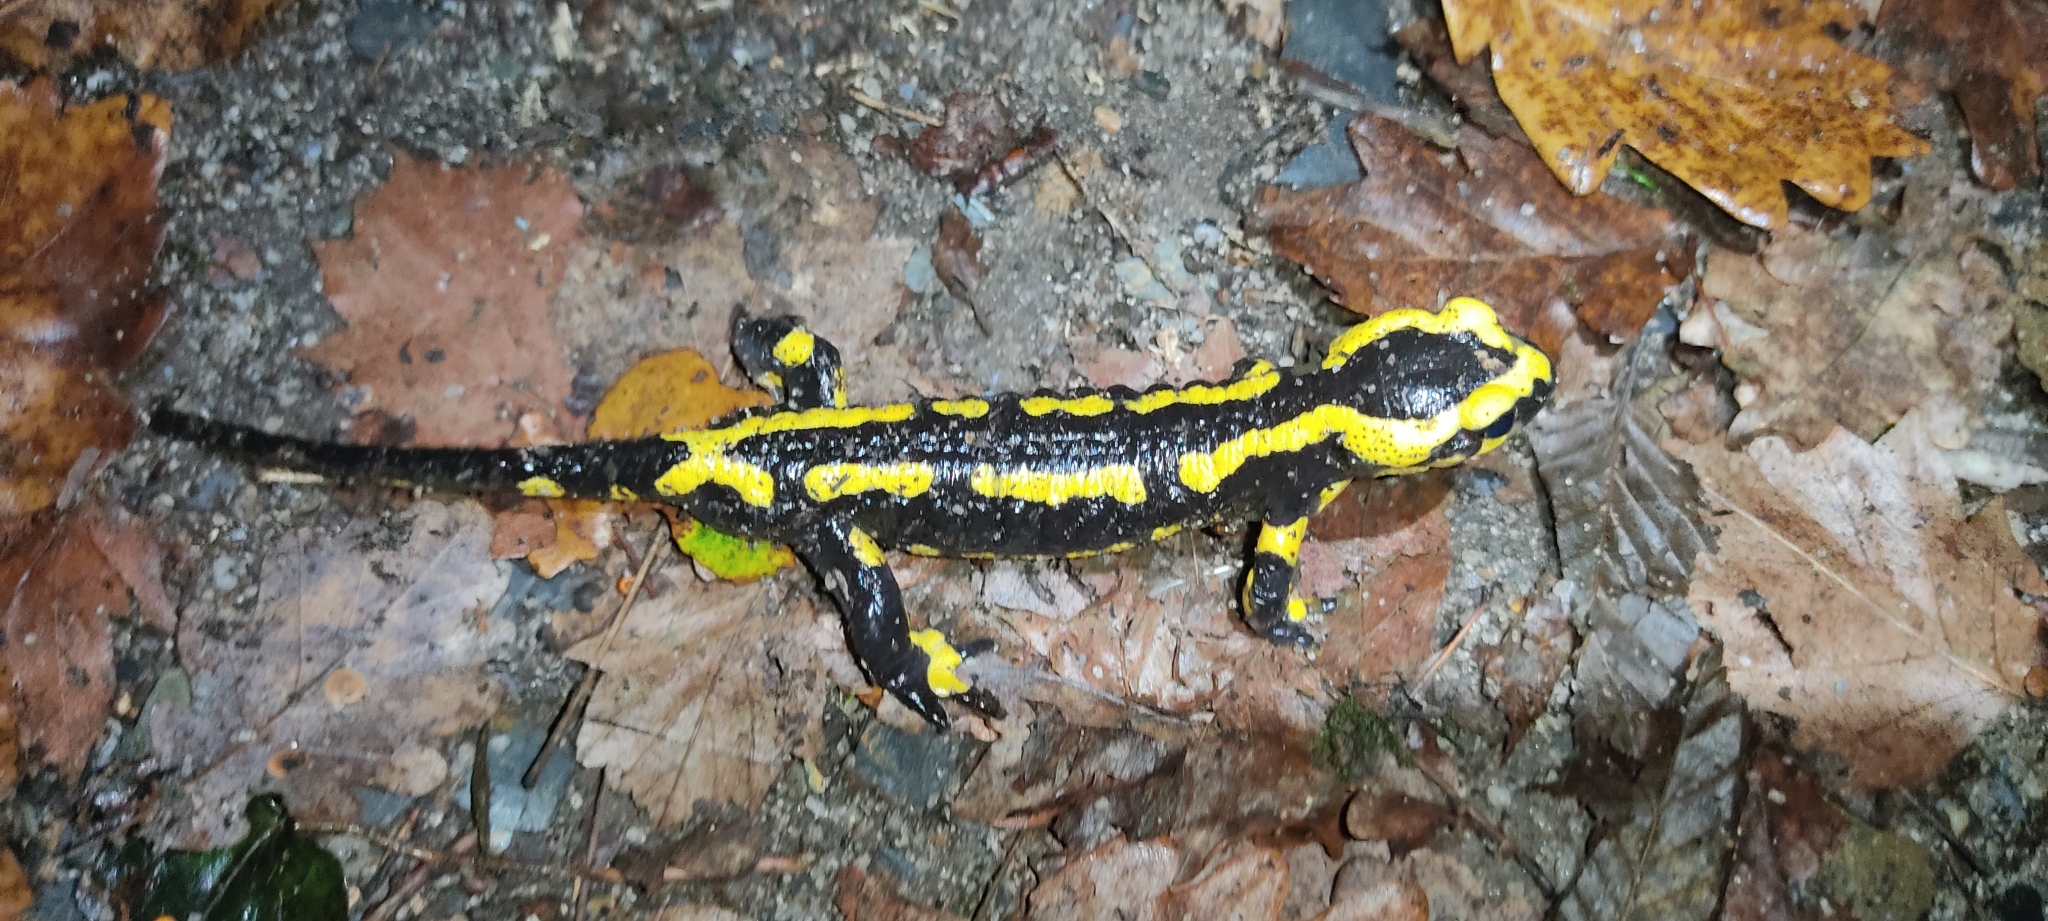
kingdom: Animalia
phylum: Chordata
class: Amphibia
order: Caudata
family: Salamandridae
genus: Salamandra
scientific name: Salamandra salamandra
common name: Fire salamander
